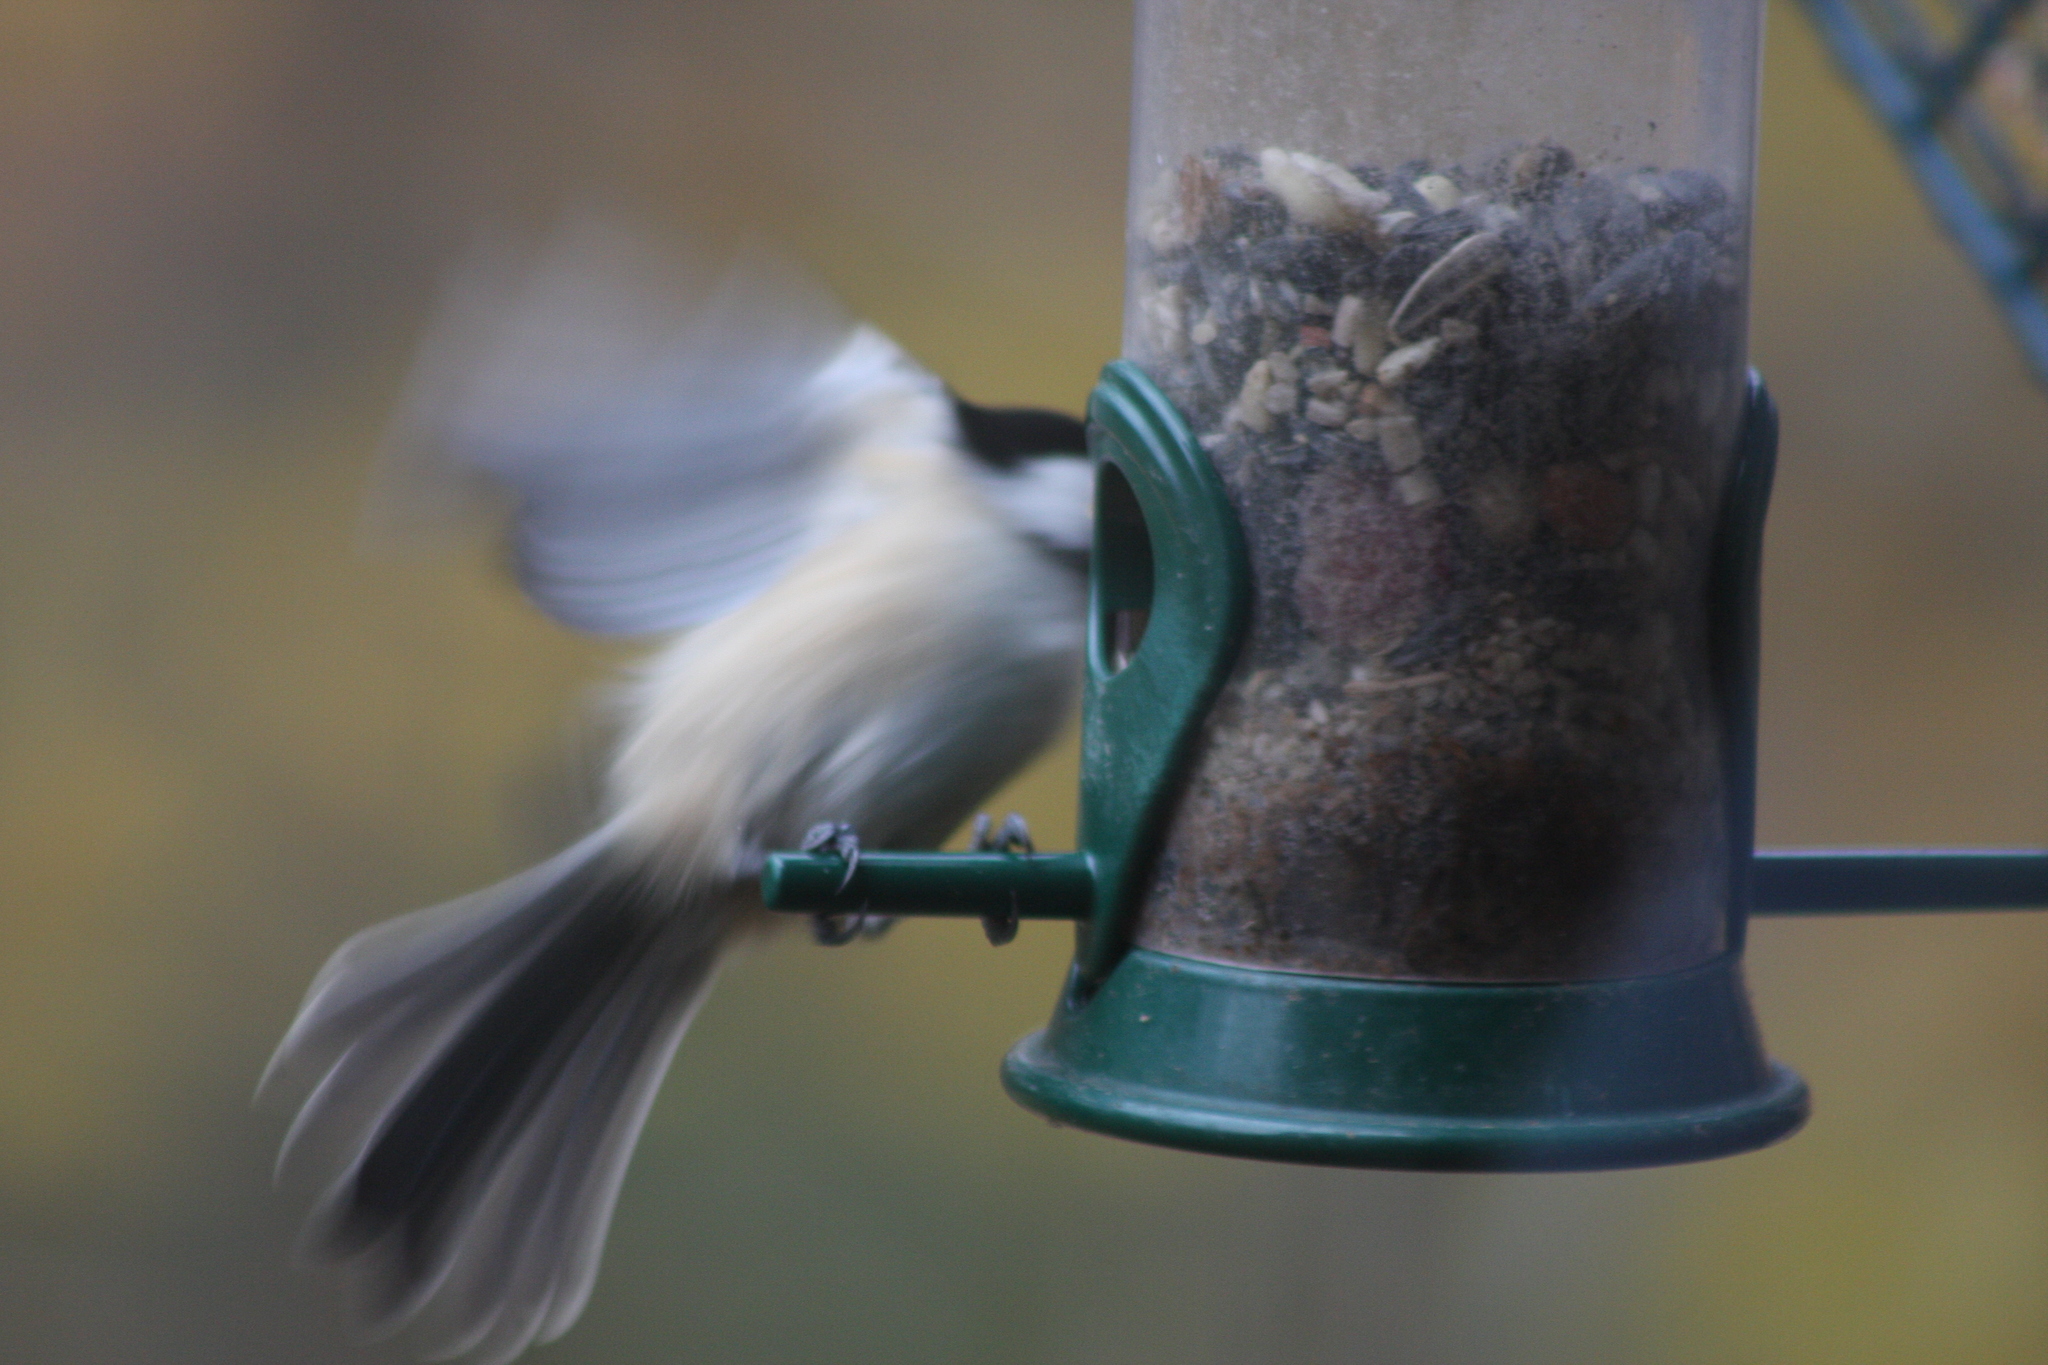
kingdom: Animalia
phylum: Chordata
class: Aves
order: Passeriformes
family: Paridae
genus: Poecile
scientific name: Poecile atricapillus
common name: Black-capped chickadee
